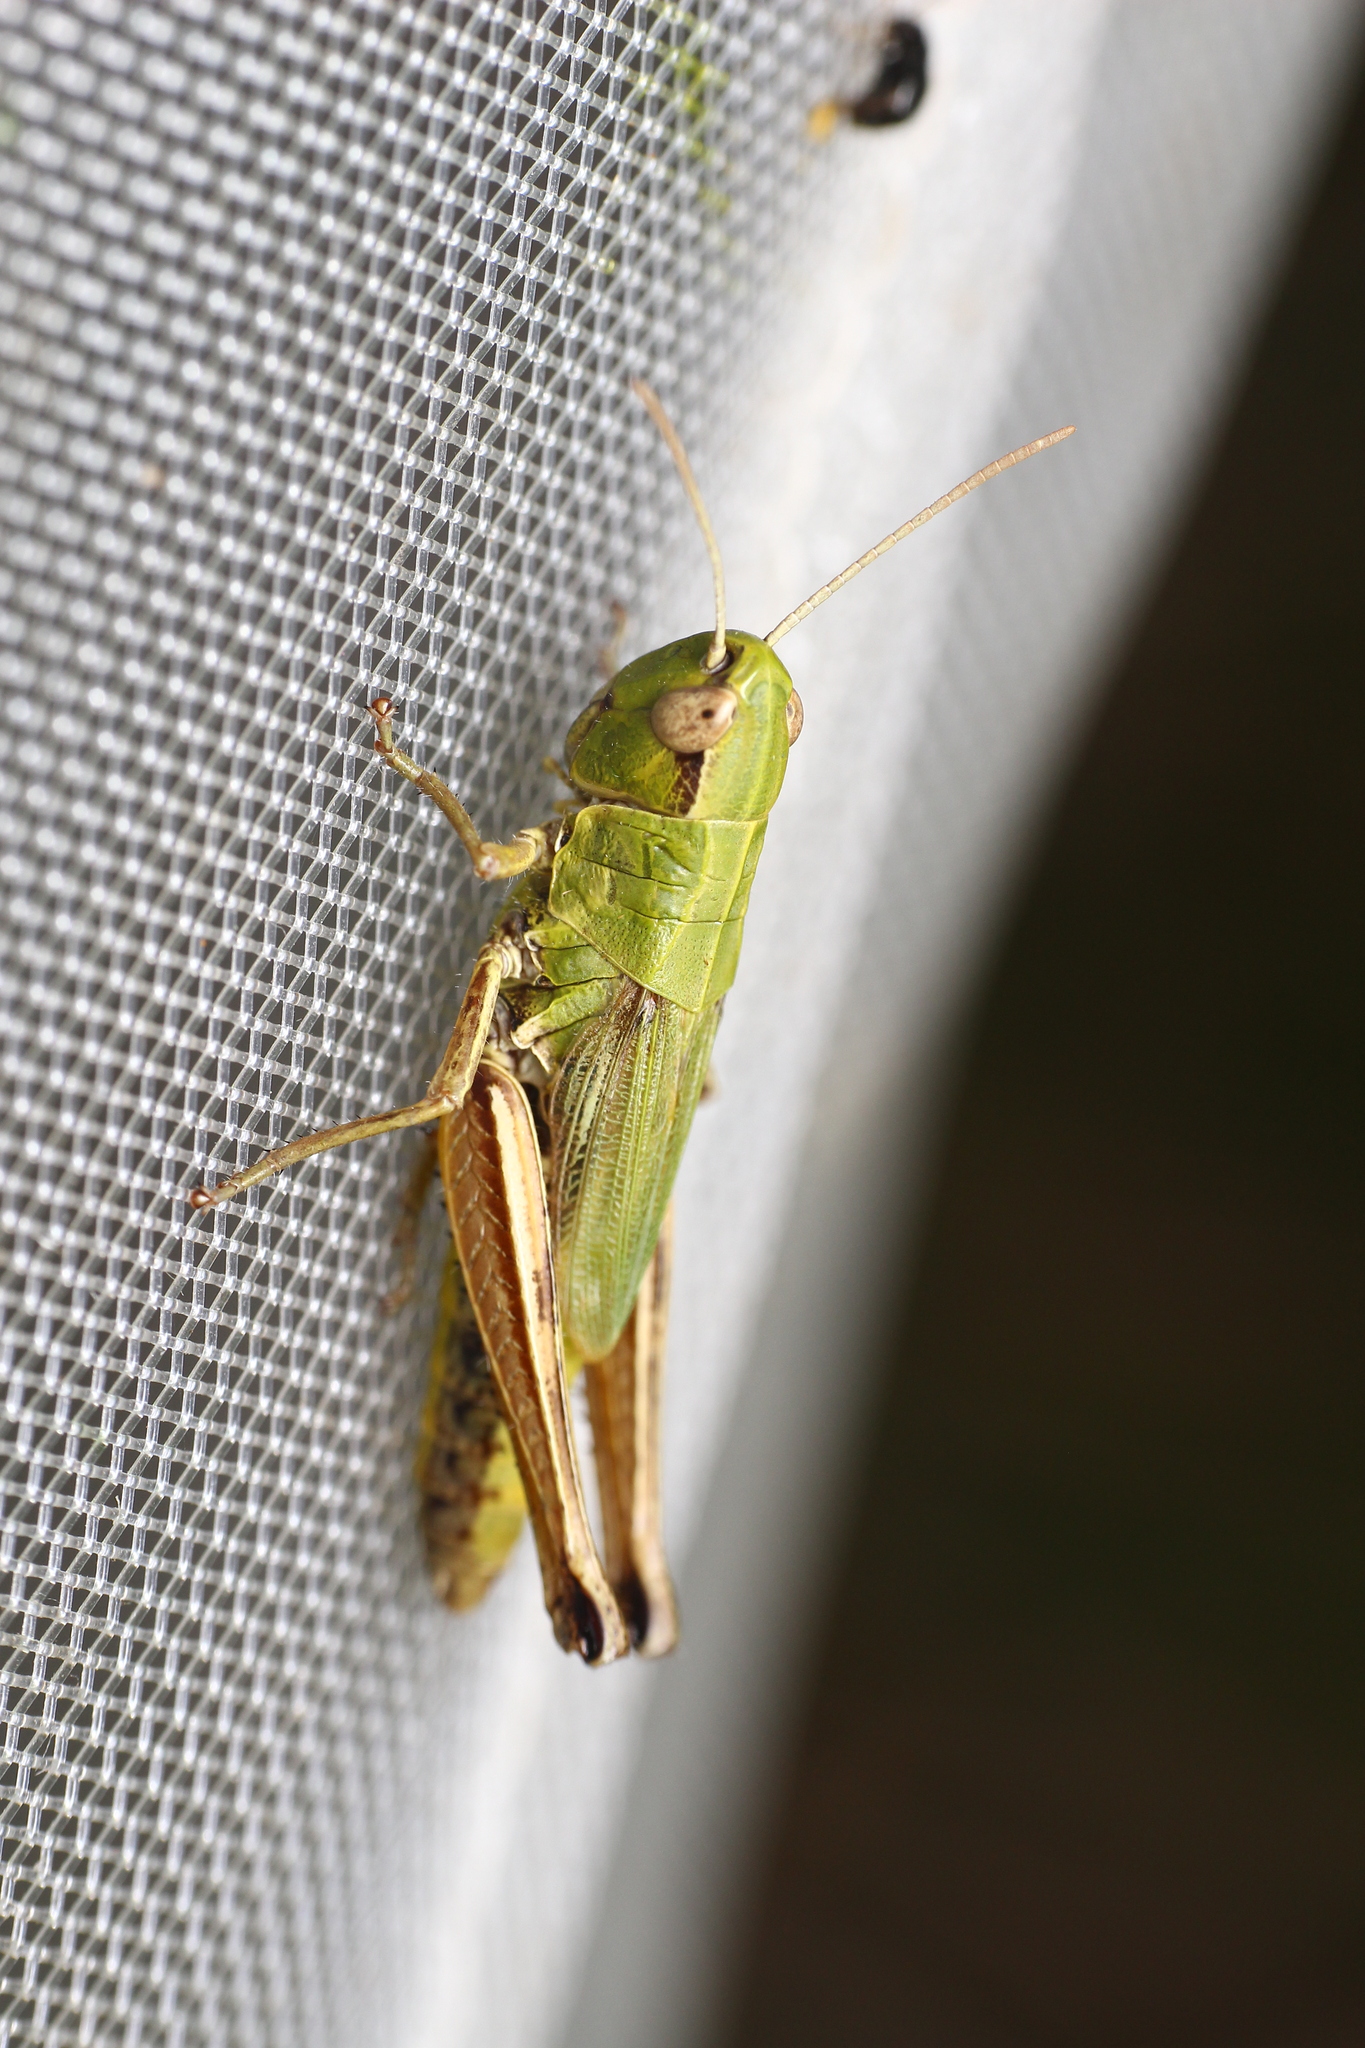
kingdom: Animalia
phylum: Arthropoda
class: Insecta
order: Orthoptera
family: Acrididae
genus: Pseudochorthippus
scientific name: Pseudochorthippus parallelus
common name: Meadow grasshopper
